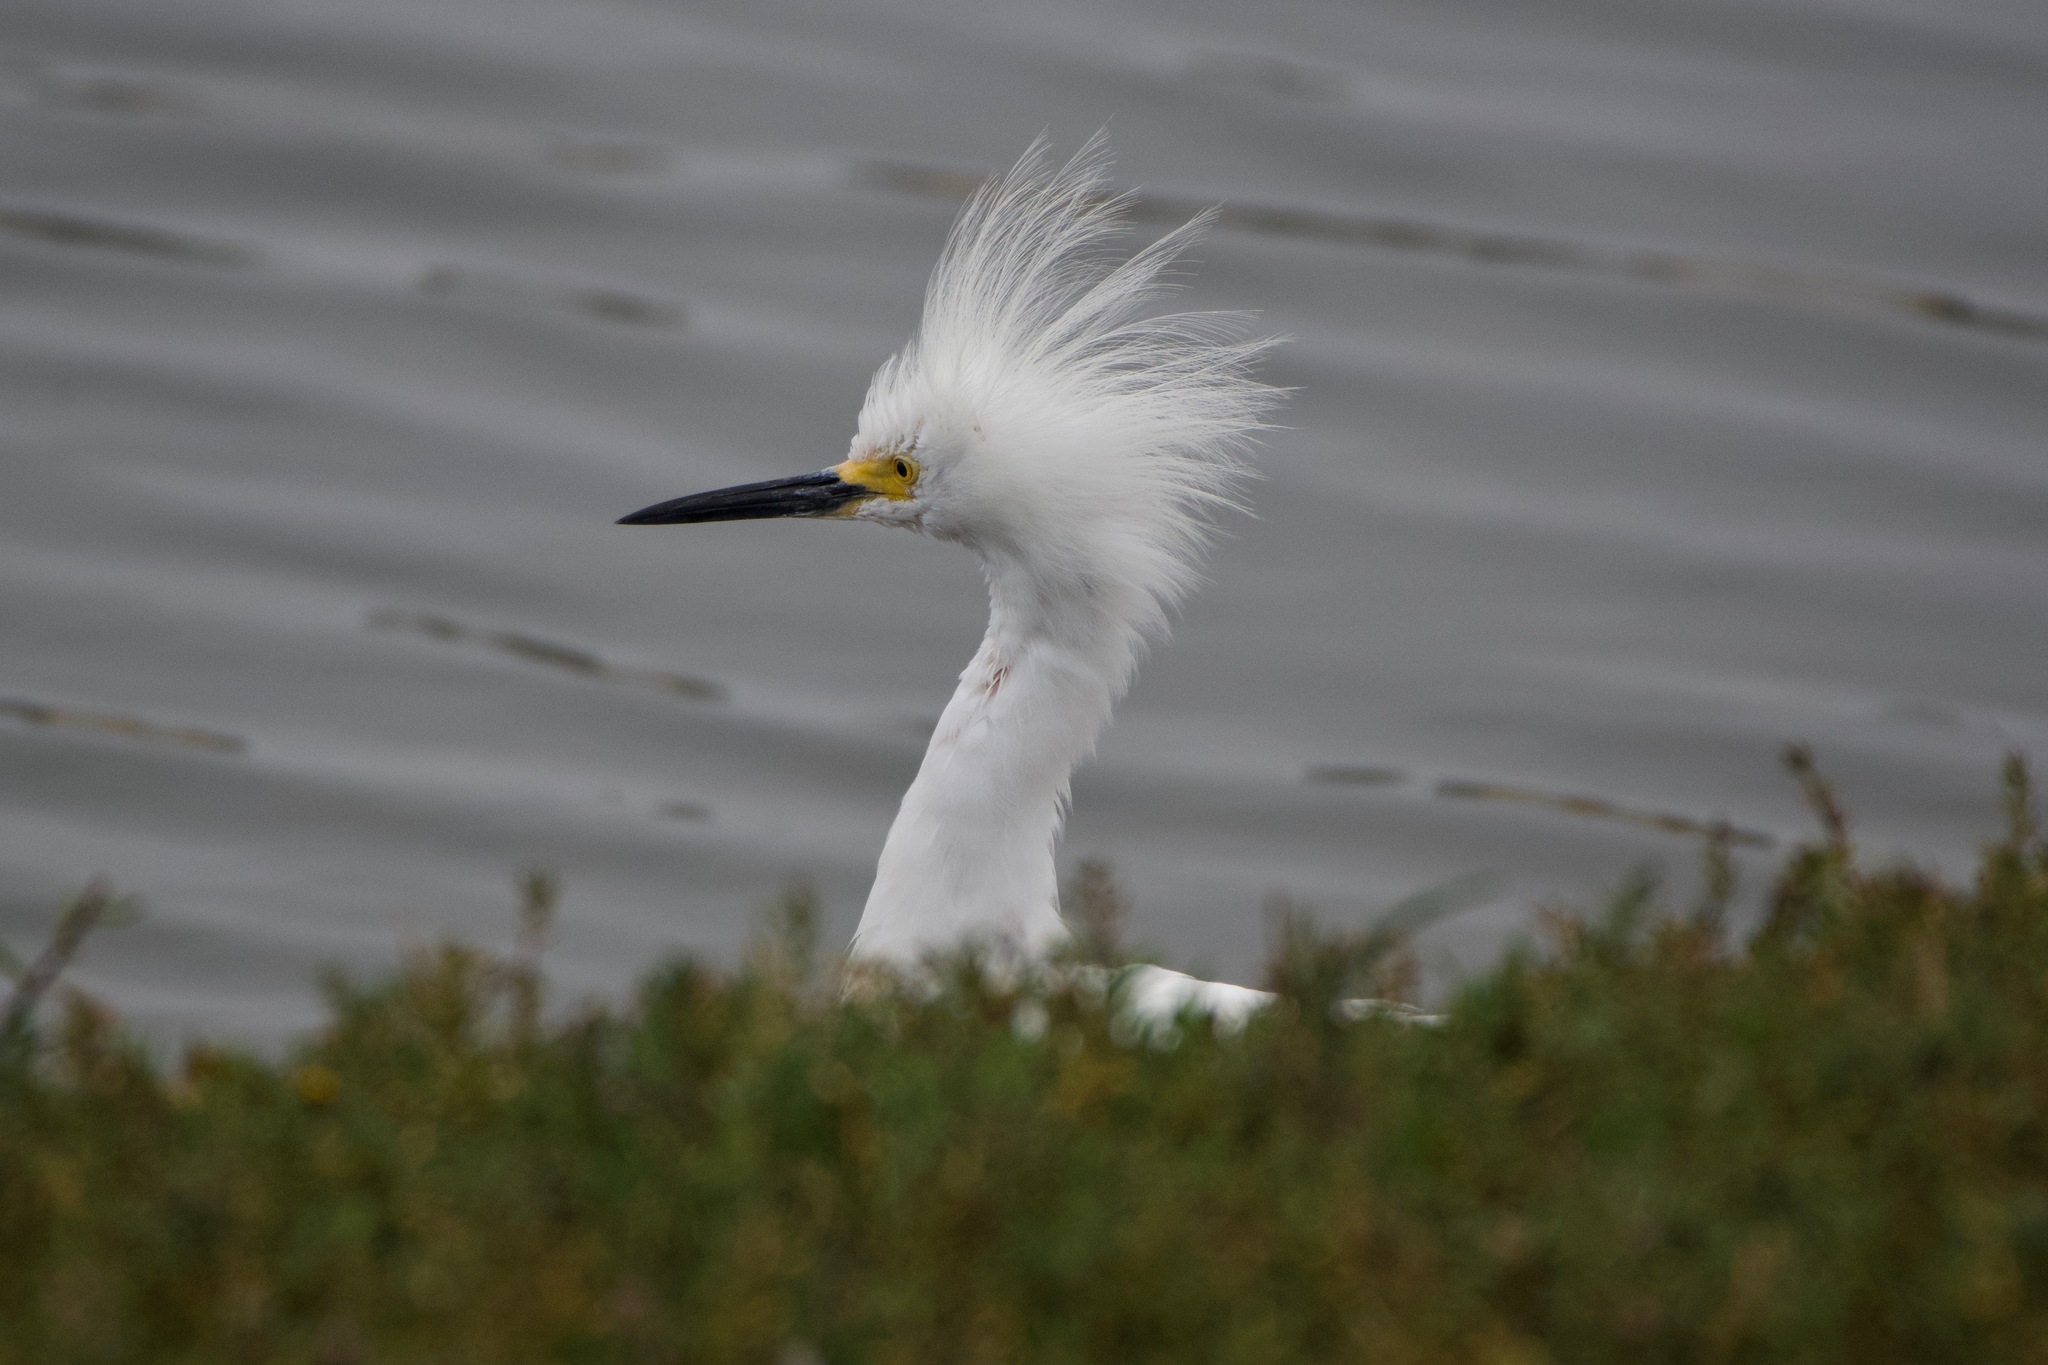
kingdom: Animalia
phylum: Chordata
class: Aves
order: Pelecaniformes
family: Ardeidae
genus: Egretta
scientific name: Egretta thula
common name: Snowy egret
